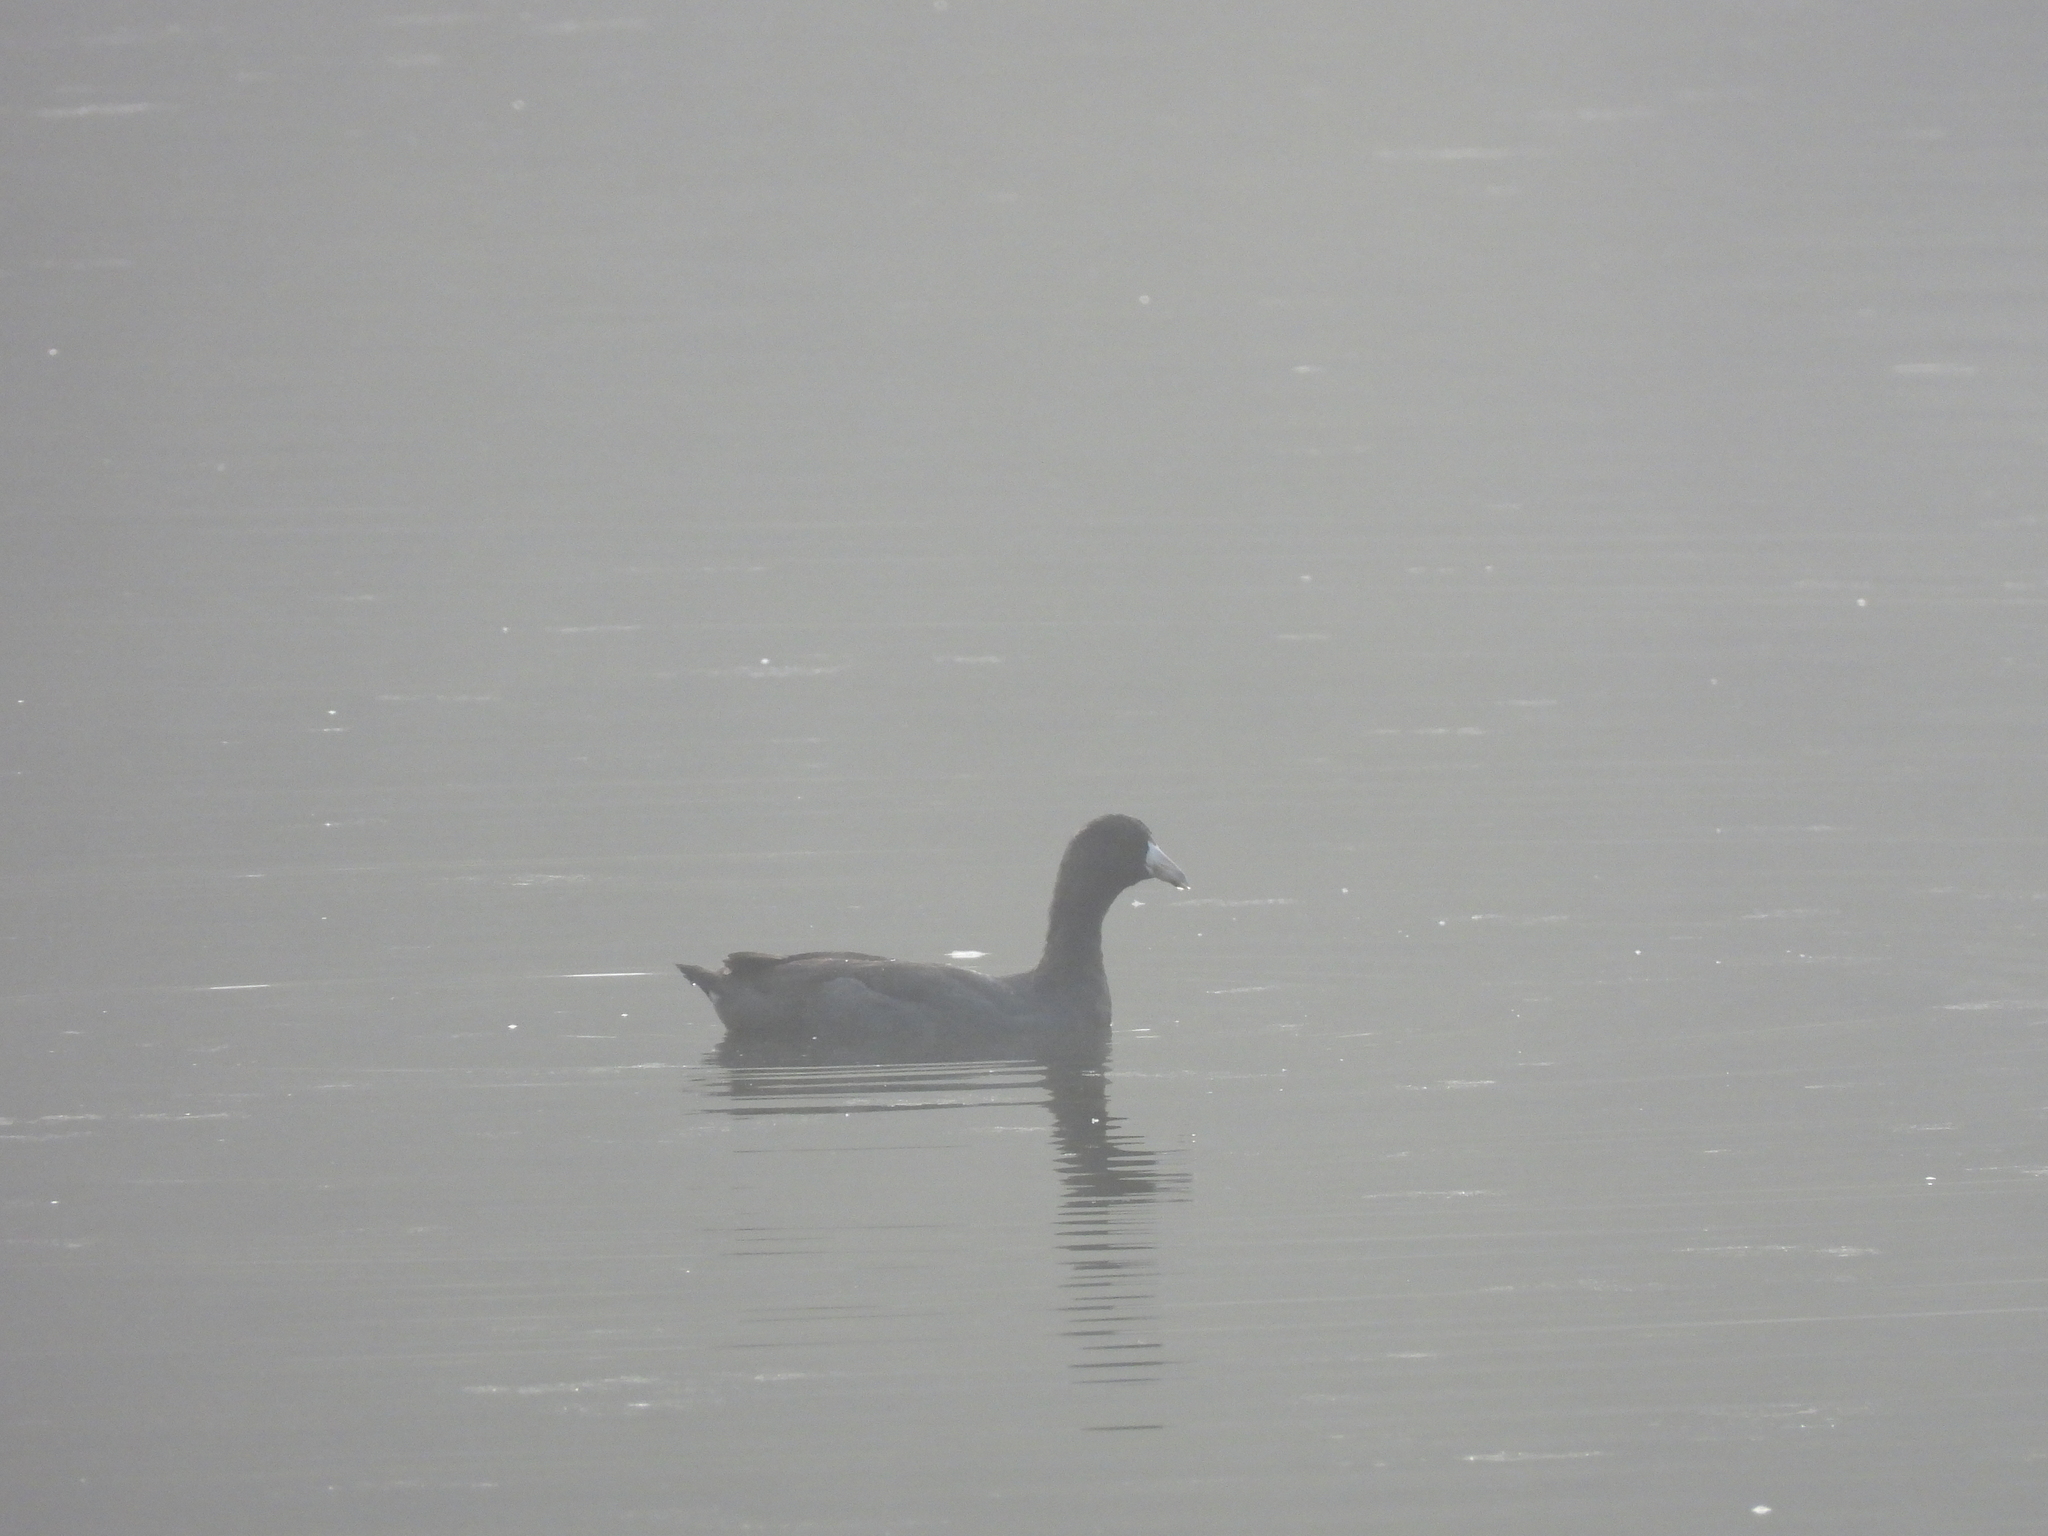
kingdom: Animalia
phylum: Chordata
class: Aves
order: Gruiformes
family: Rallidae
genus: Fulica
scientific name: Fulica americana
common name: American coot
